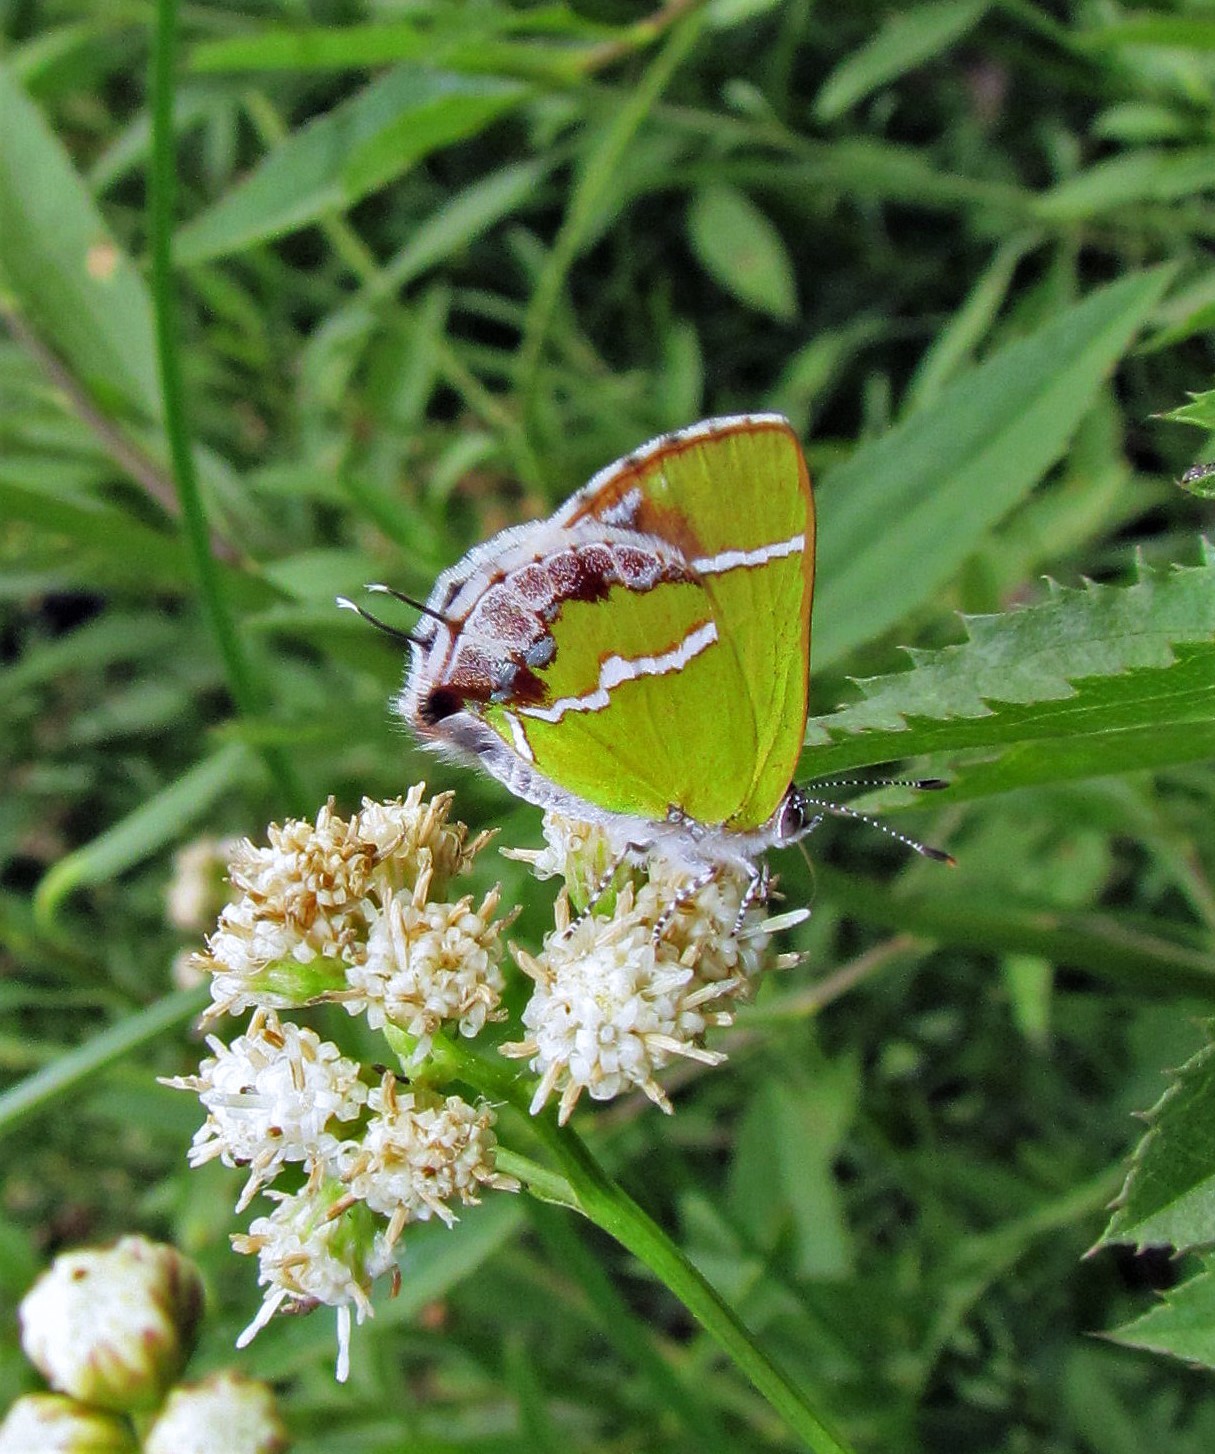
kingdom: Animalia
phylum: Arthropoda
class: Insecta
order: Lepidoptera
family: Lycaenidae
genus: Chlorostrymon
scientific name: Chlorostrymon simaethis
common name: Silver-banded hairstreak
